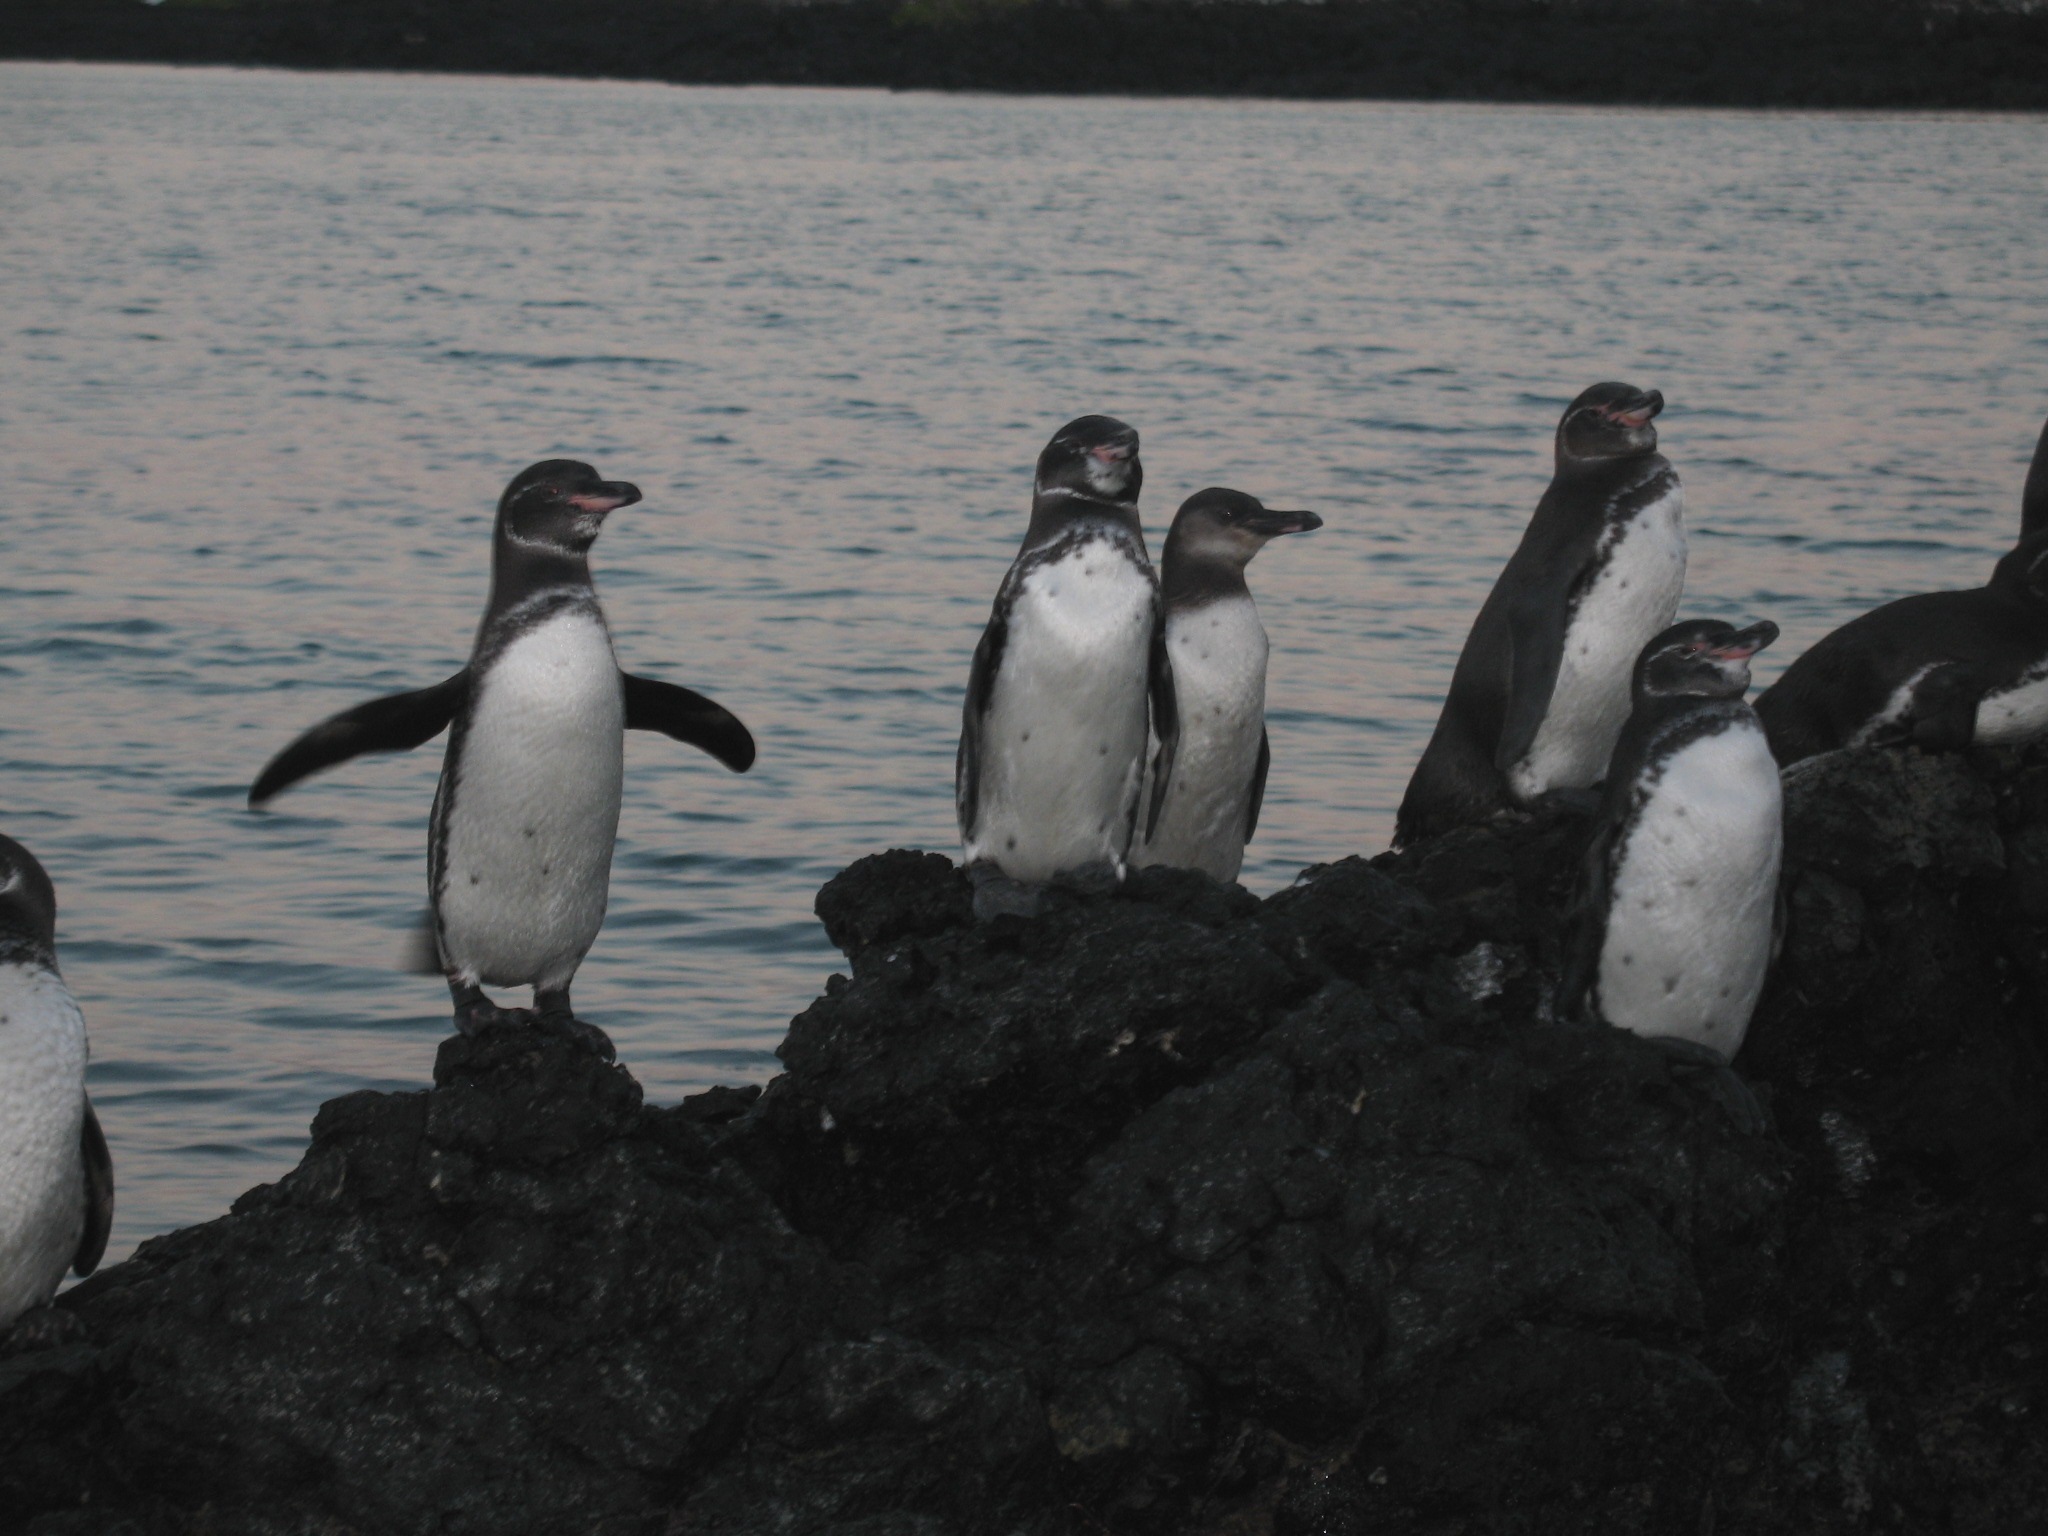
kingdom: Animalia
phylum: Chordata
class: Aves
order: Sphenisciformes
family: Spheniscidae
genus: Spheniscus
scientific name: Spheniscus mendiculus
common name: Galapagos penguin
